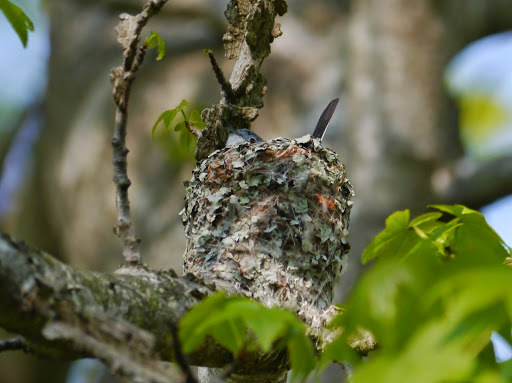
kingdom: Animalia
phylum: Chordata
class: Aves
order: Passeriformes
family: Polioptilidae
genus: Polioptila
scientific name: Polioptila caerulea
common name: Blue-gray gnatcatcher
